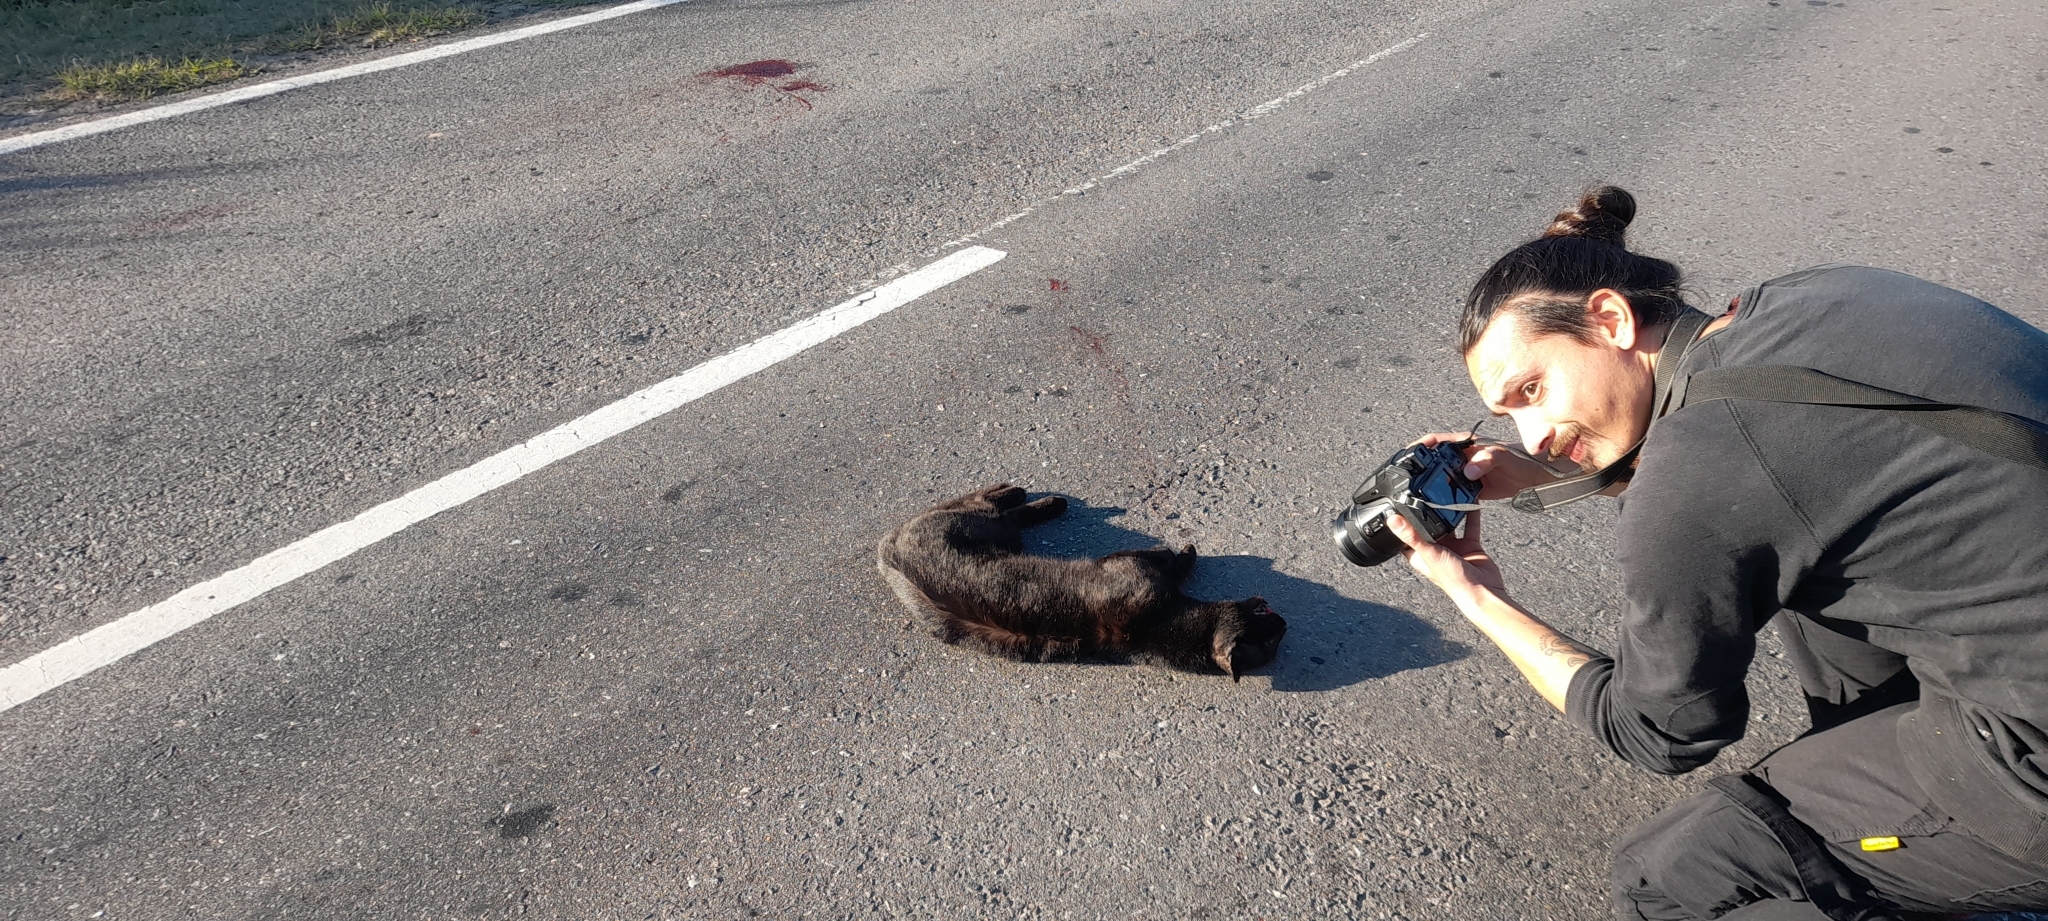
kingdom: Animalia
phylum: Chordata
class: Mammalia
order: Carnivora
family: Felidae
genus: Leopardus
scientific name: Leopardus geoffroyi
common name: Geoffroy's cat
